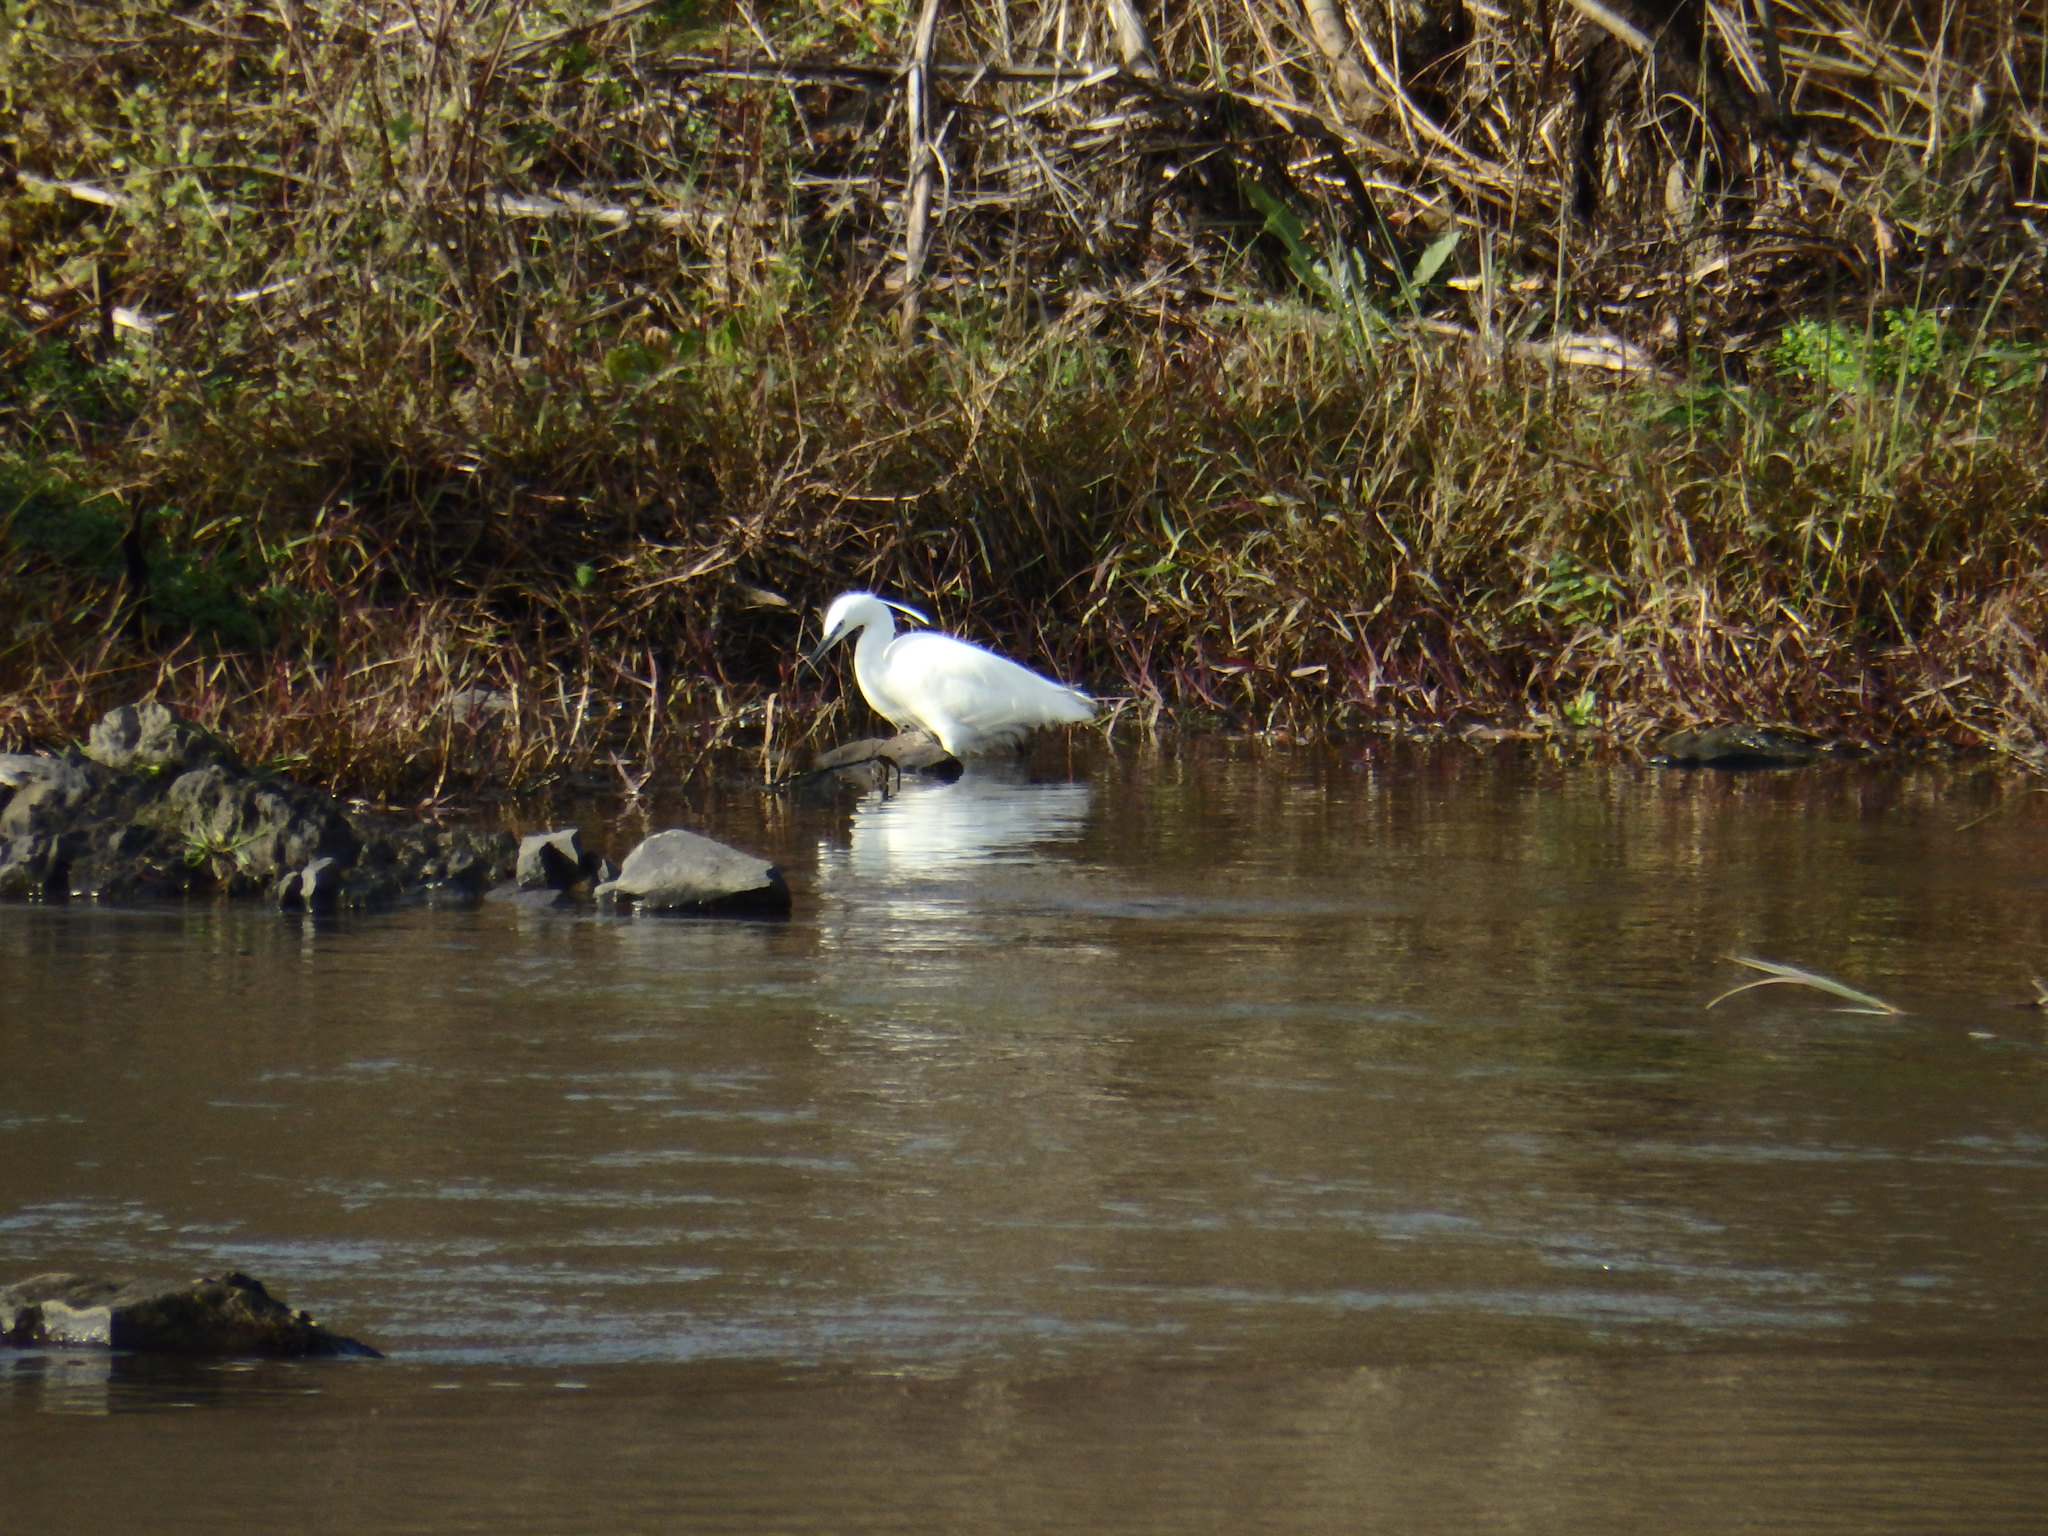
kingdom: Animalia
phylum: Chordata
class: Aves
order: Pelecaniformes
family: Ardeidae
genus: Egretta
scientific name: Egretta garzetta
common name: Little egret
